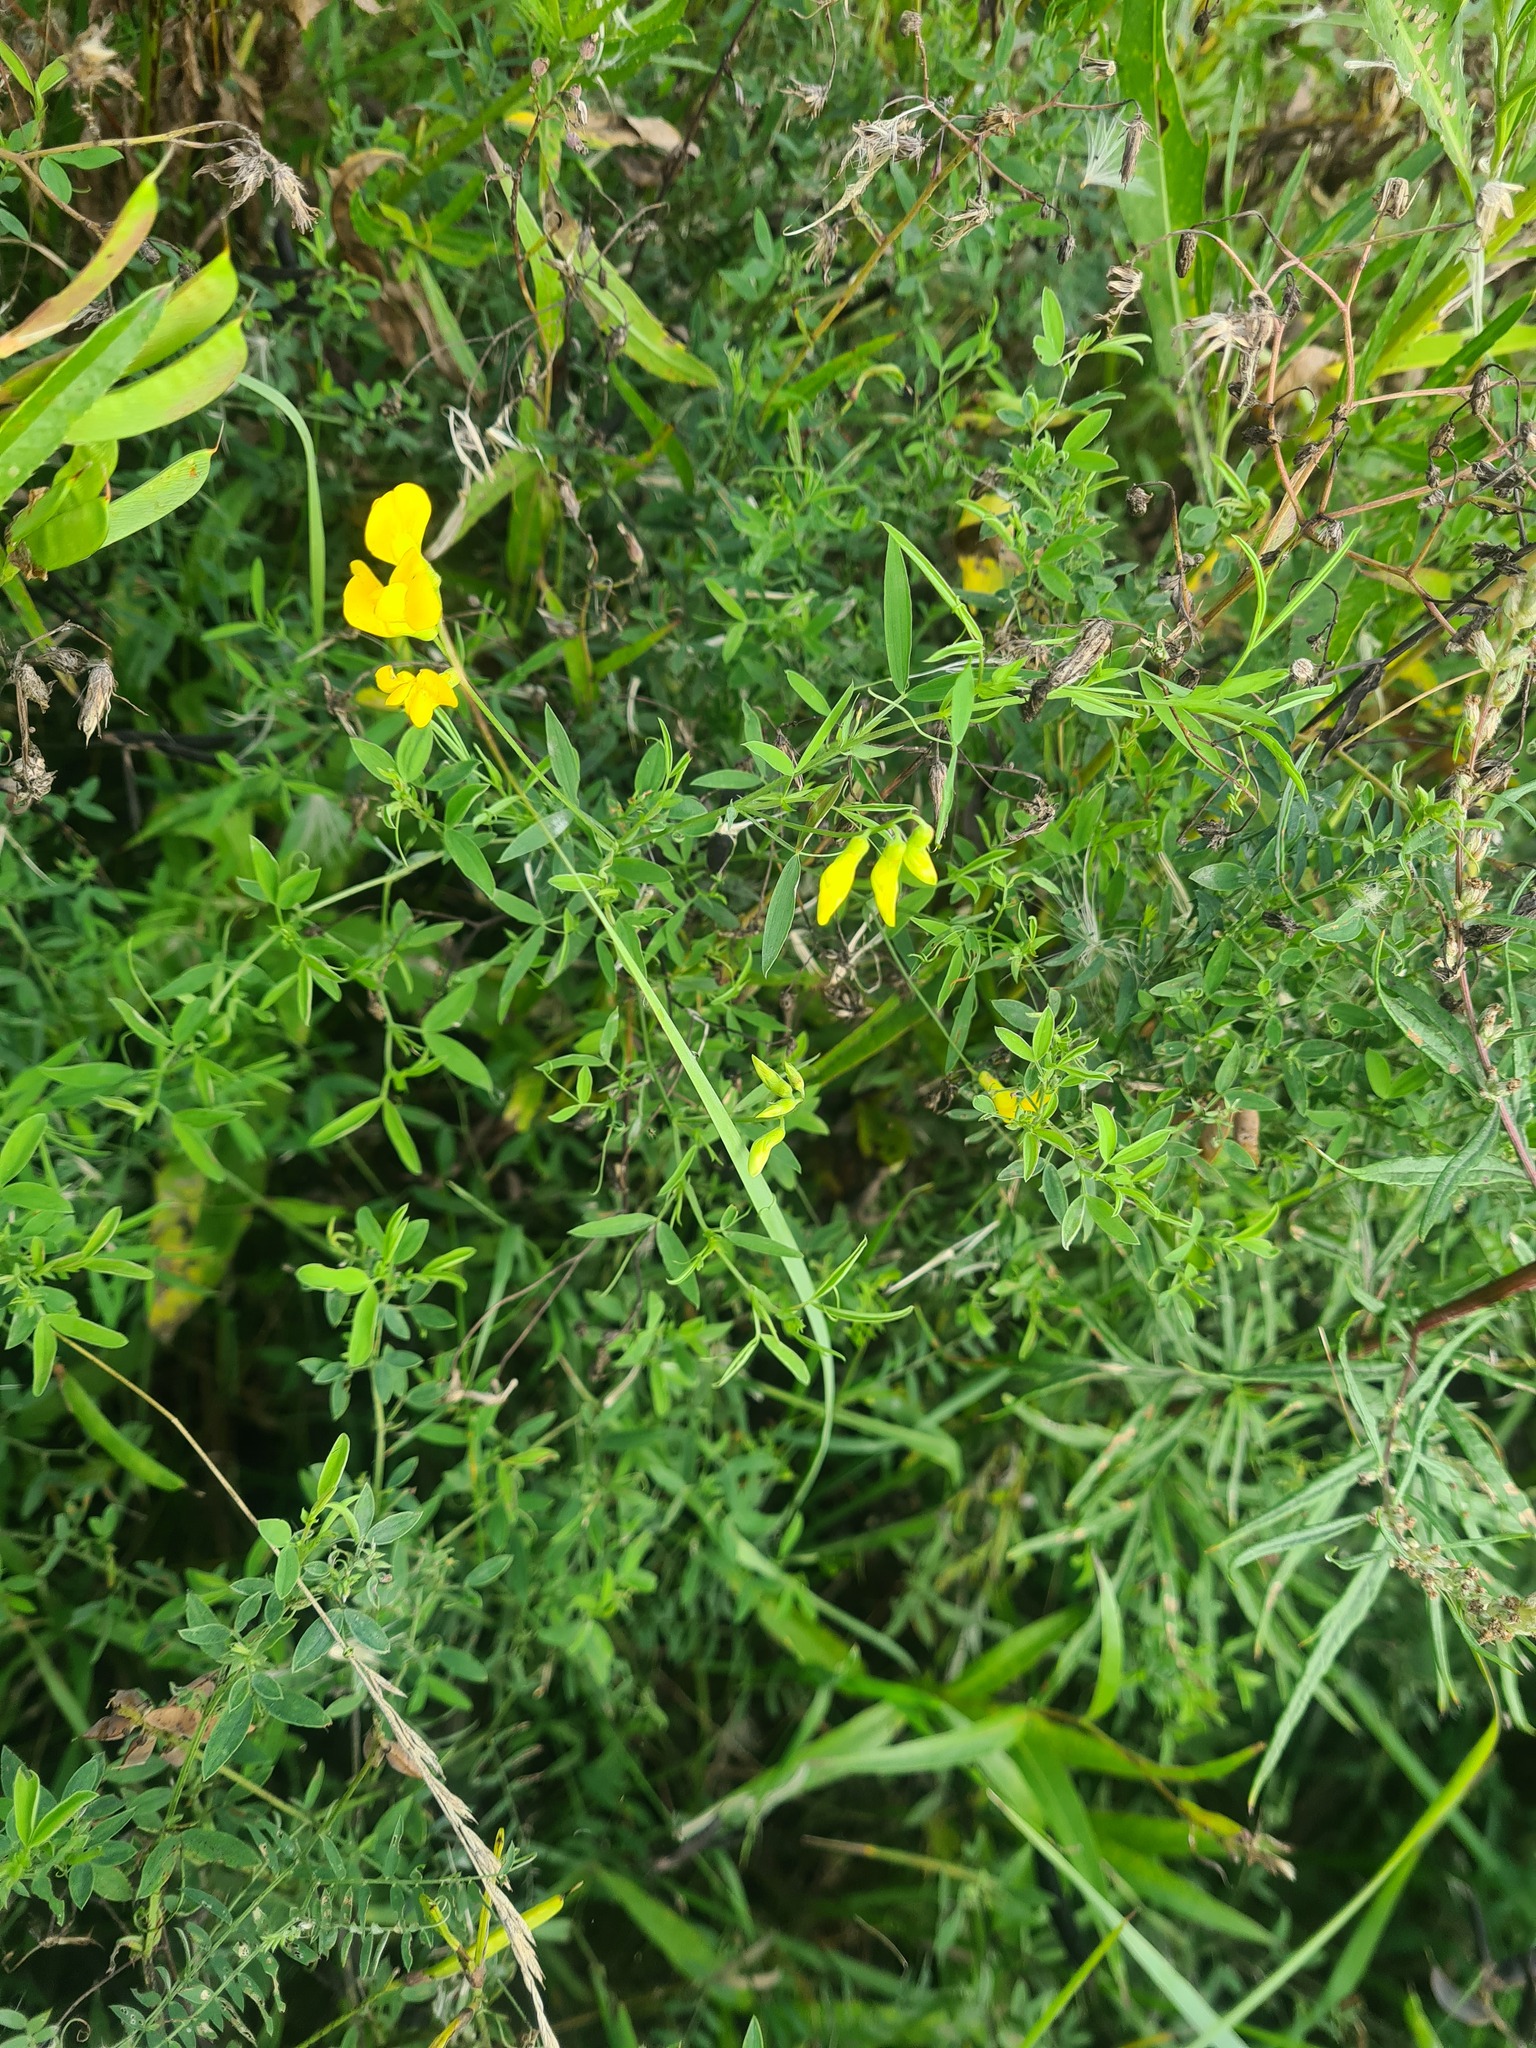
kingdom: Plantae
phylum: Tracheophyta
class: Magnoliopsida
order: Fabales
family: Fabaceae
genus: Lathyrus
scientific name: Lathyrus pratensis
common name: Meadow vetchling
